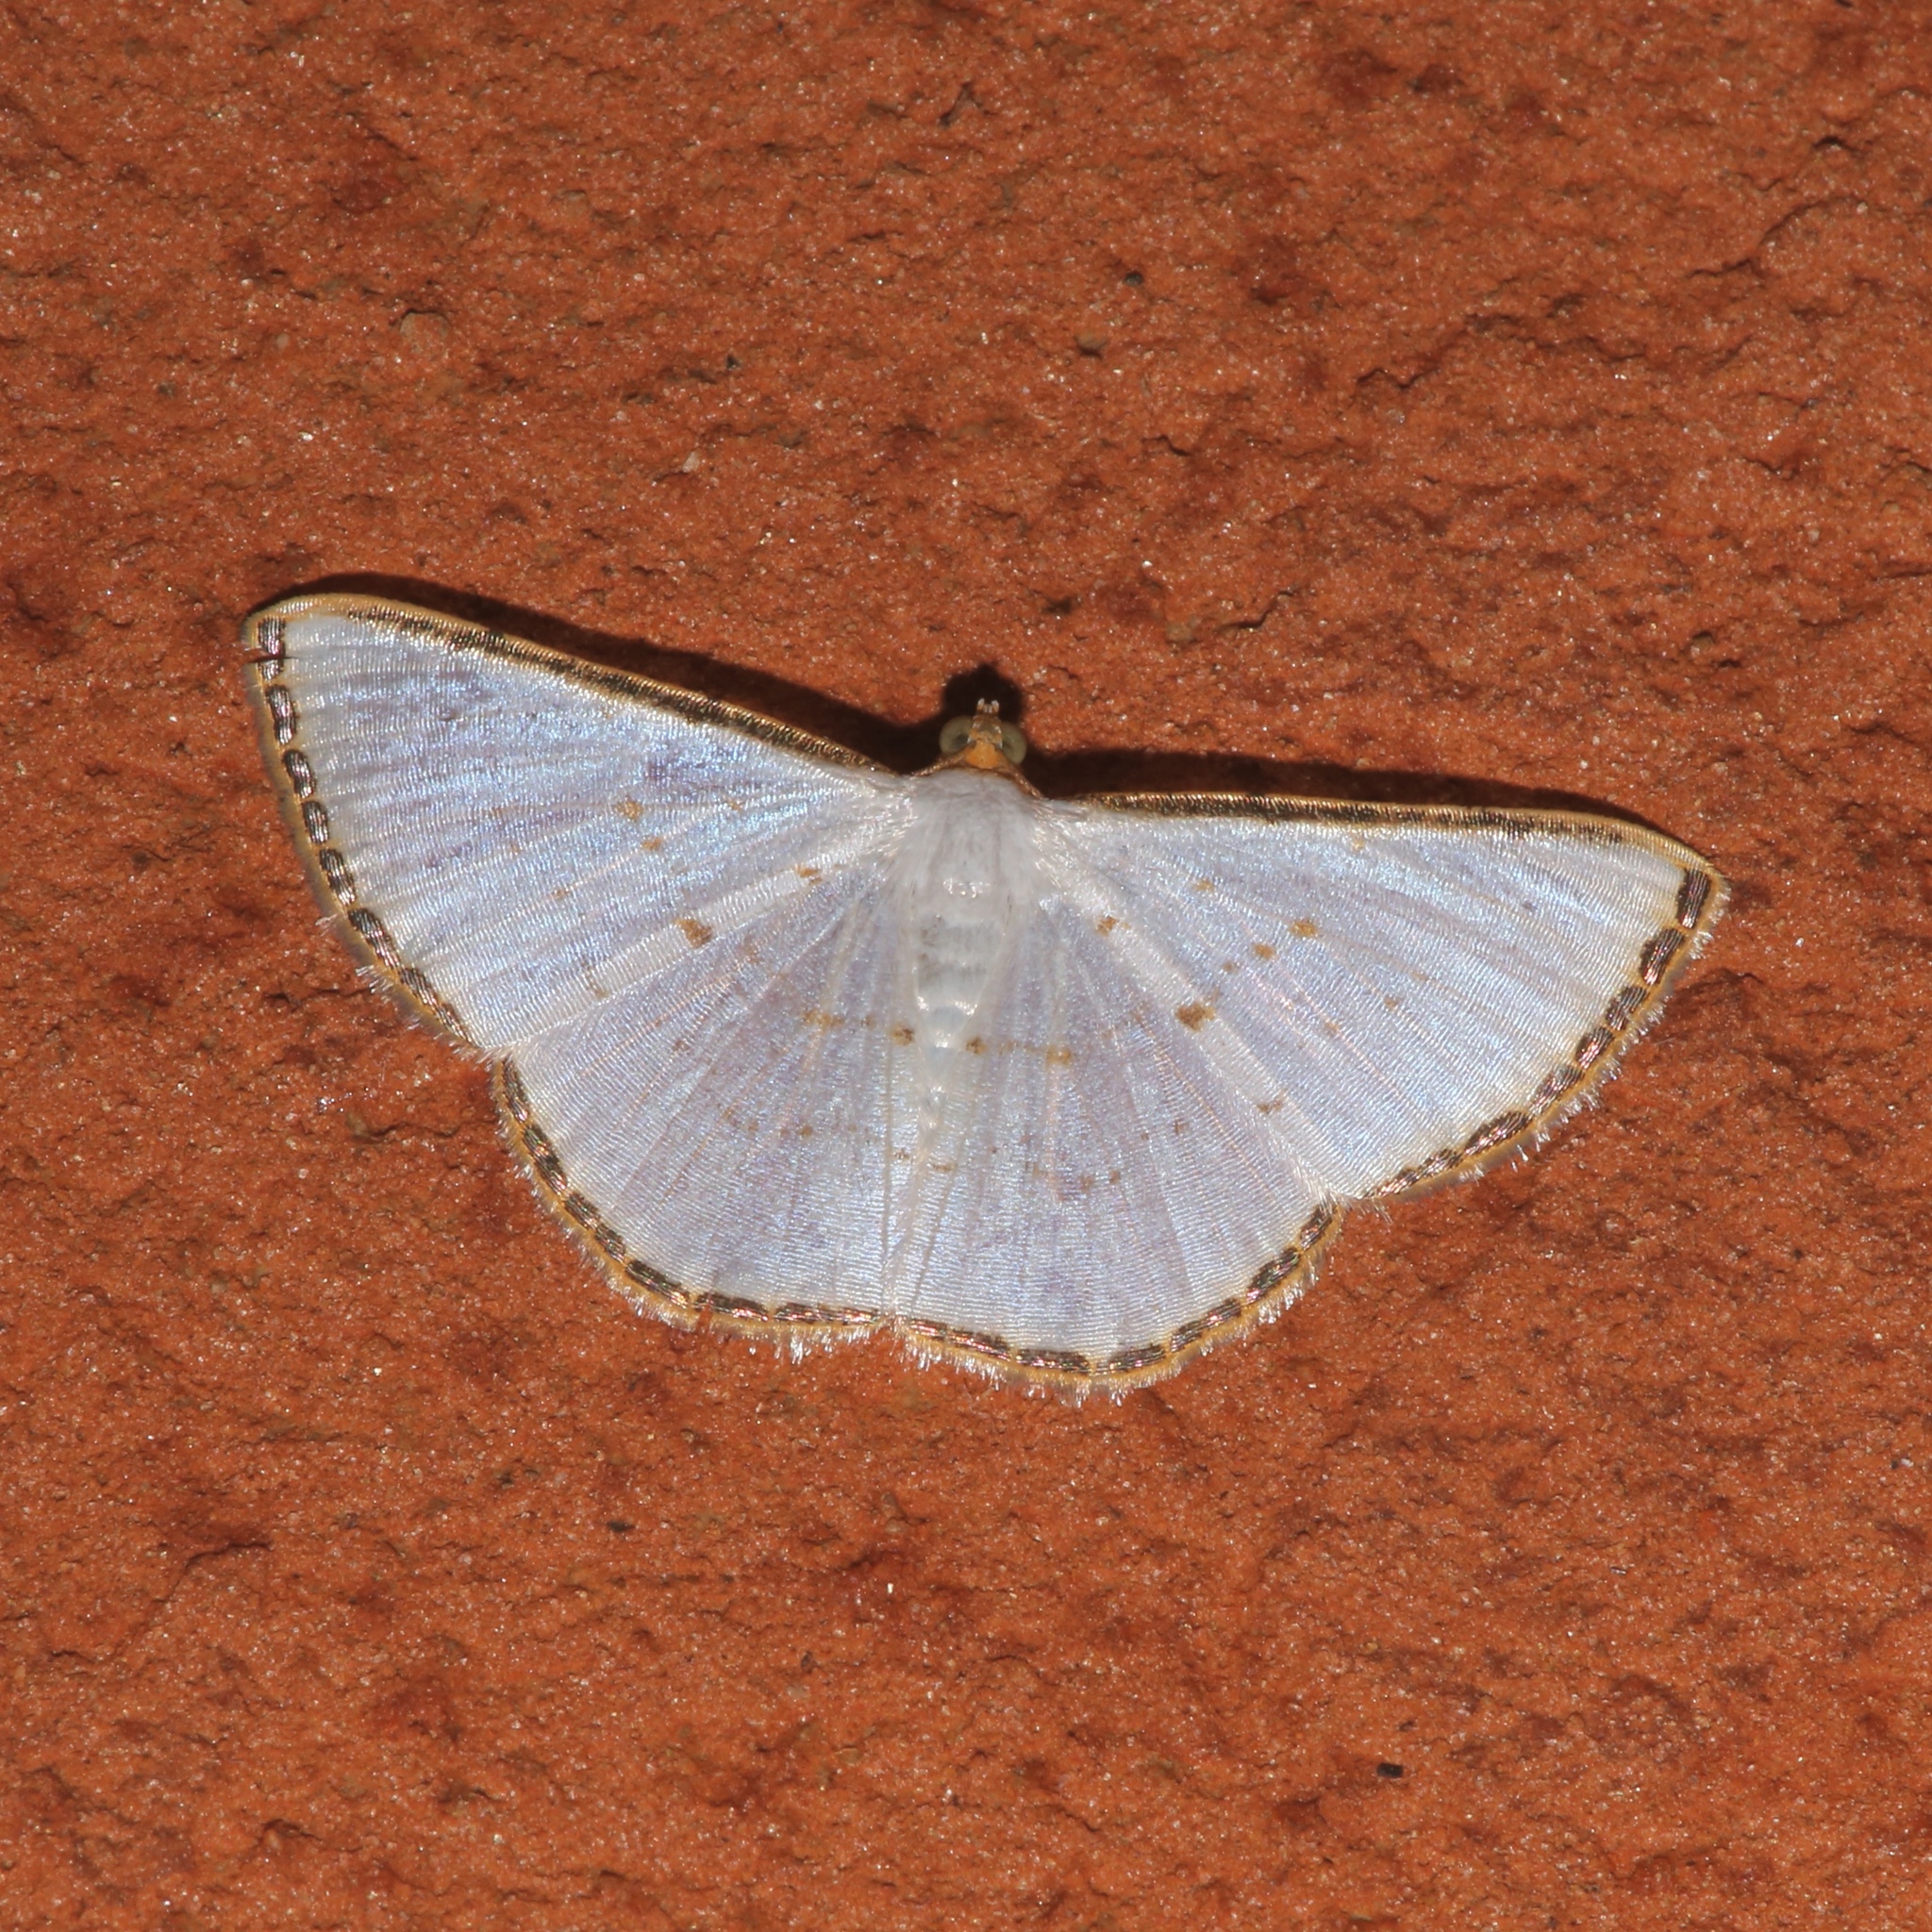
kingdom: Animalia
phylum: Arthropoda
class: Insecta
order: Lepidoptera
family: Geometridae
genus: Leuciris
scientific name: Leuciris fimbriaria
